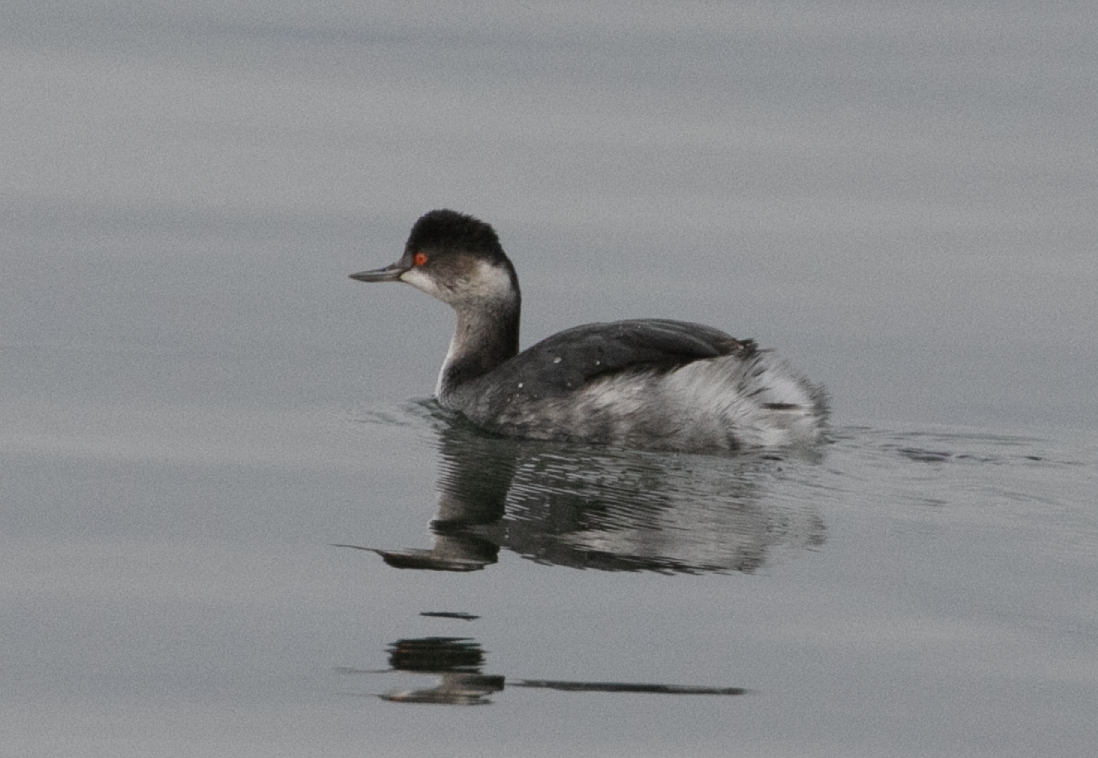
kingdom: Animalia
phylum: Chordata
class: Aves
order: Podicipediformes
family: Podicipedidae
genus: Podiceps
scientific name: Podiceps nigricollis
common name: Black-necked grebe
